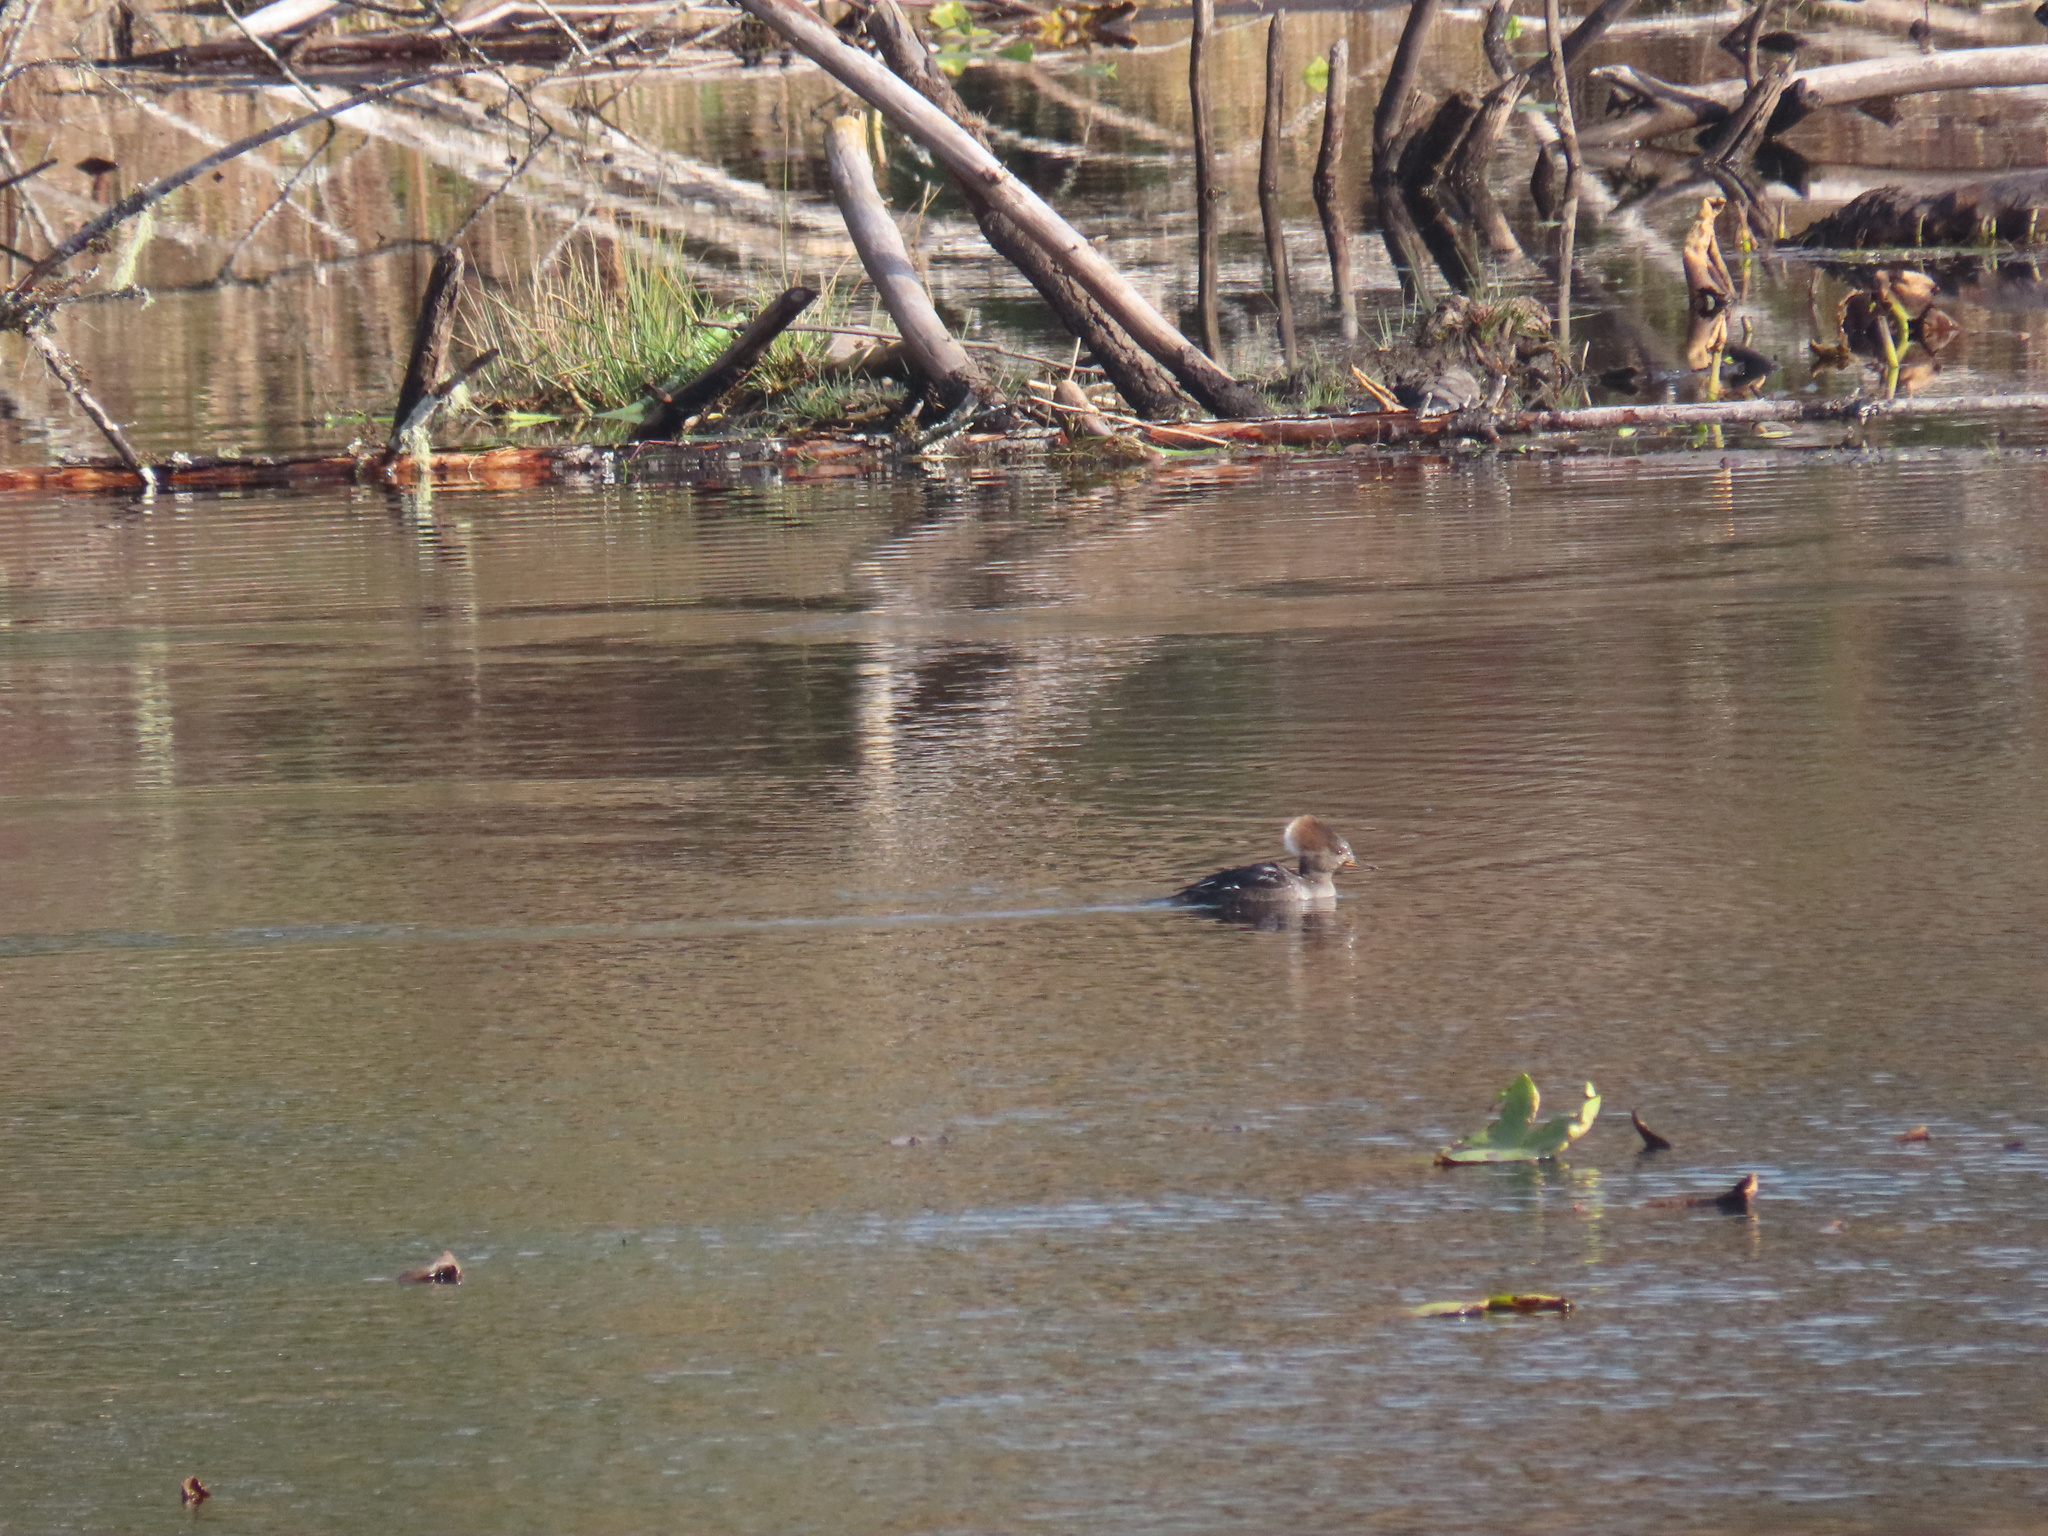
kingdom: Animalia
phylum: Chordata
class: Aves
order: Anseriformes
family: Anatidae
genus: Lophodytes
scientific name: Lophodytes cucullatus
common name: Hooded merganser
